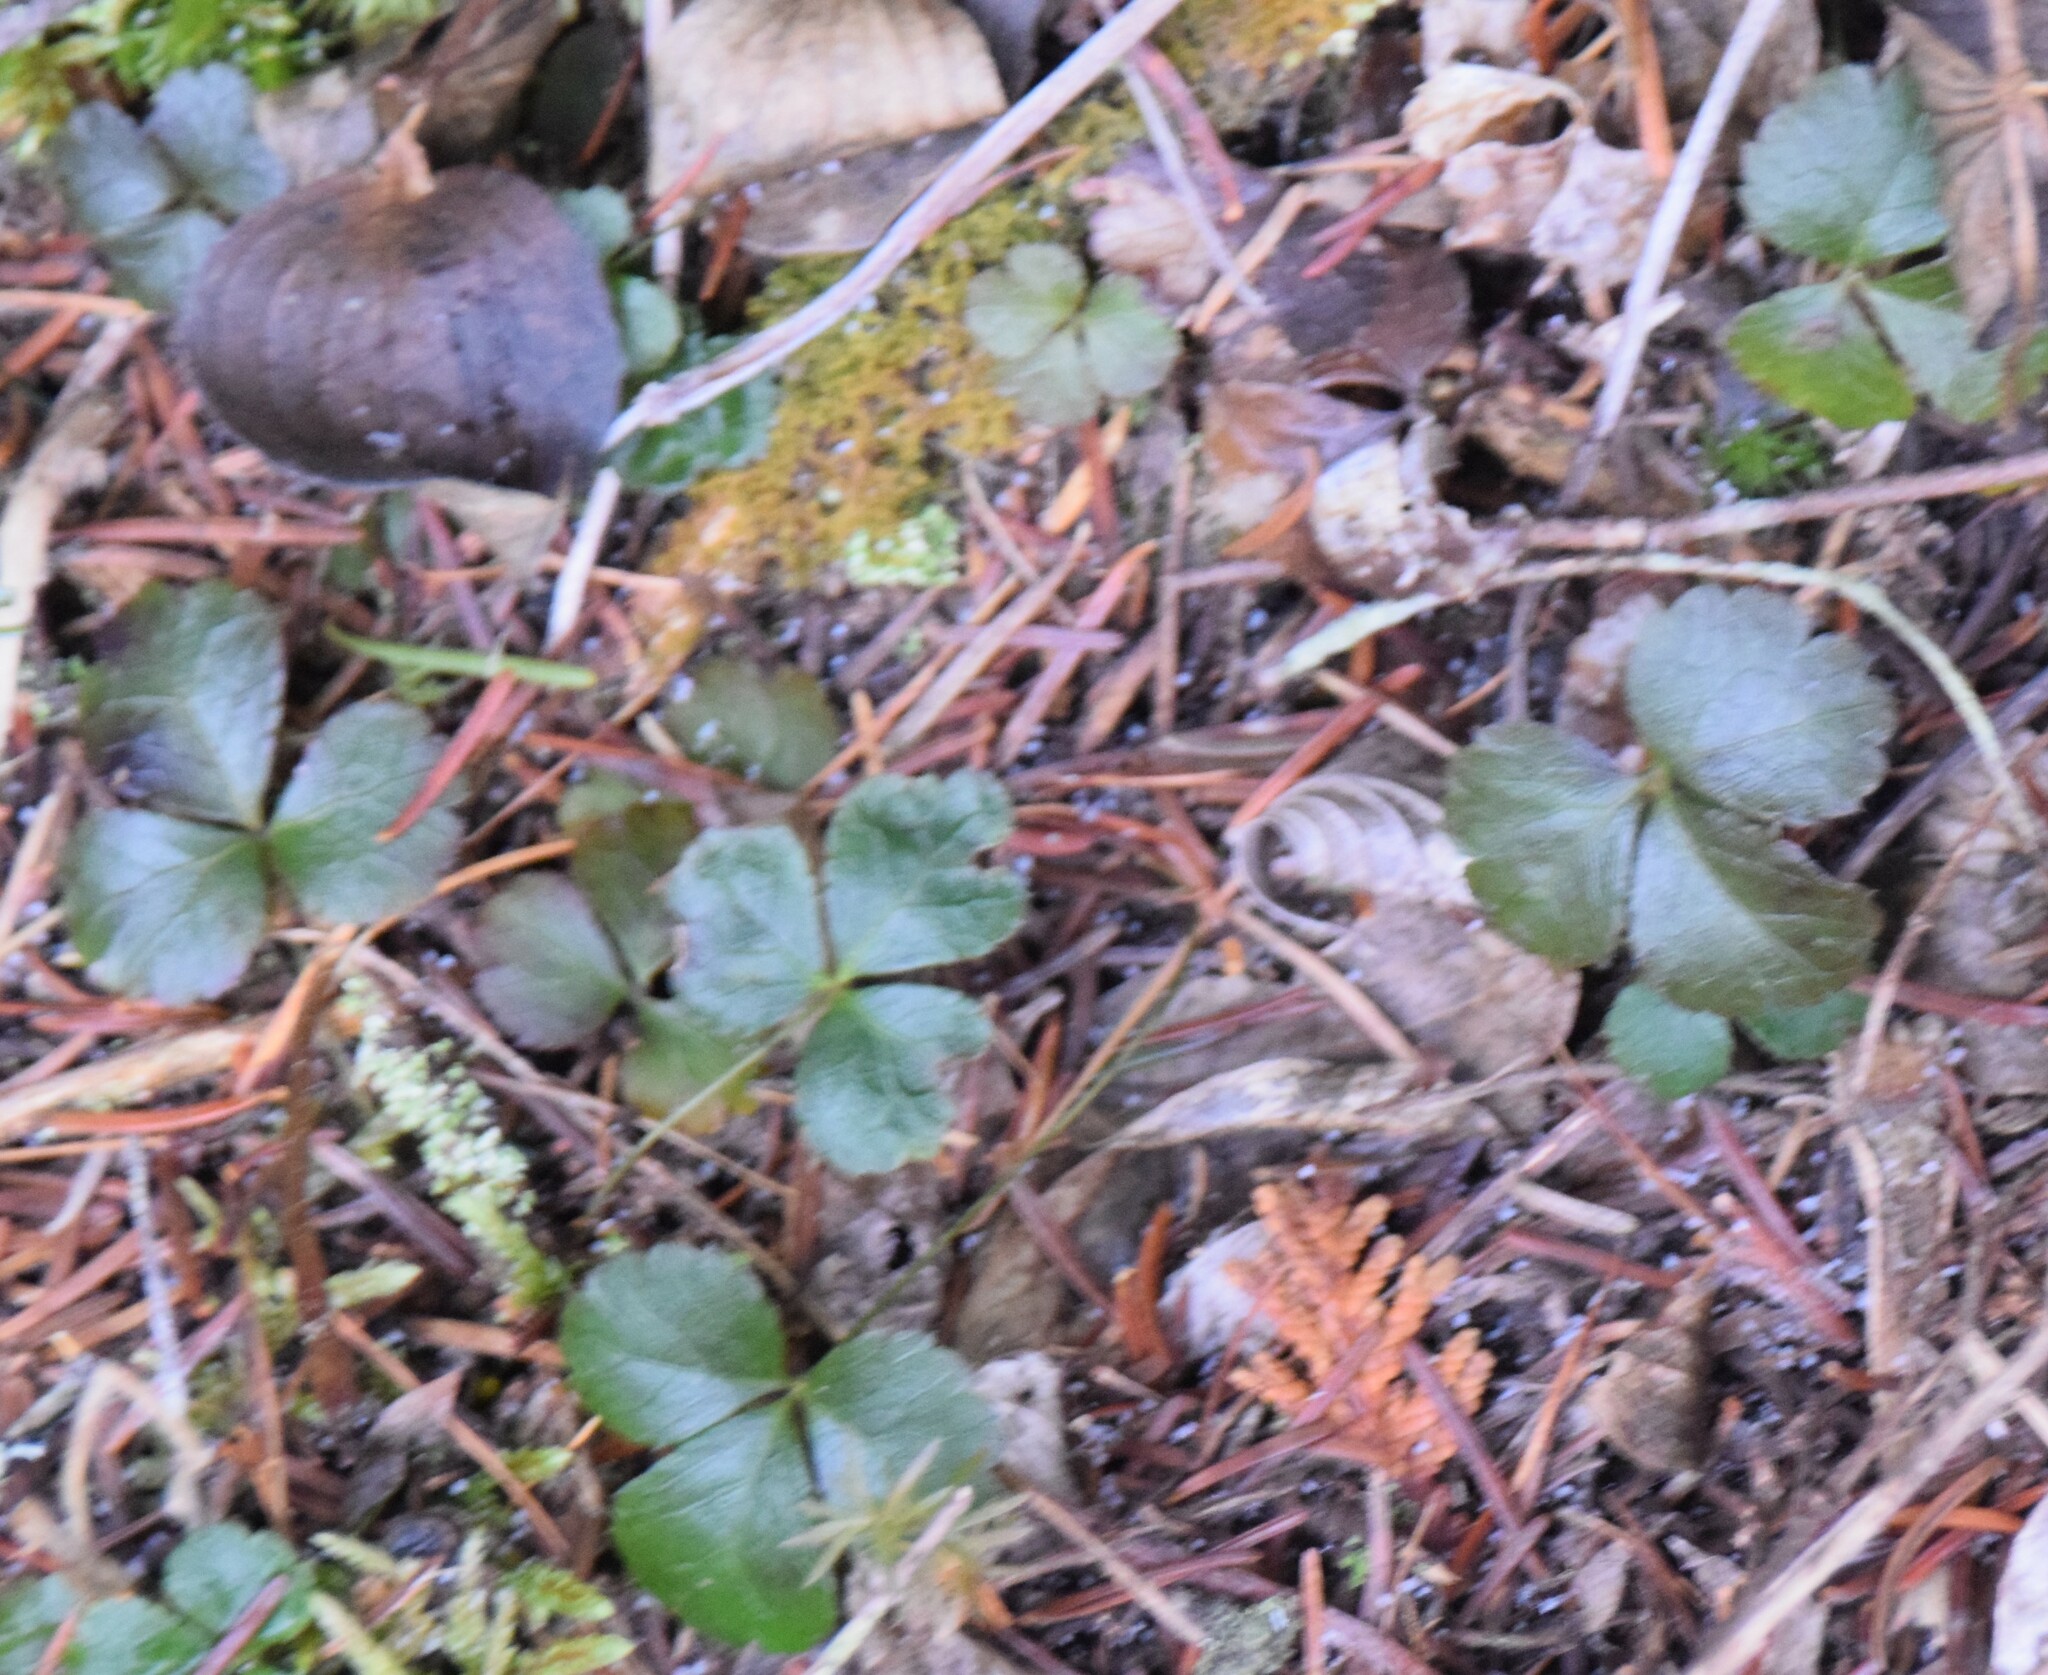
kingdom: Plantae
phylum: Tracheophyta
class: Magnoliopsida
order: Ranunculales
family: Ranunculaceae
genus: Coptis
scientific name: Coptis trifolia
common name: Canker-root
